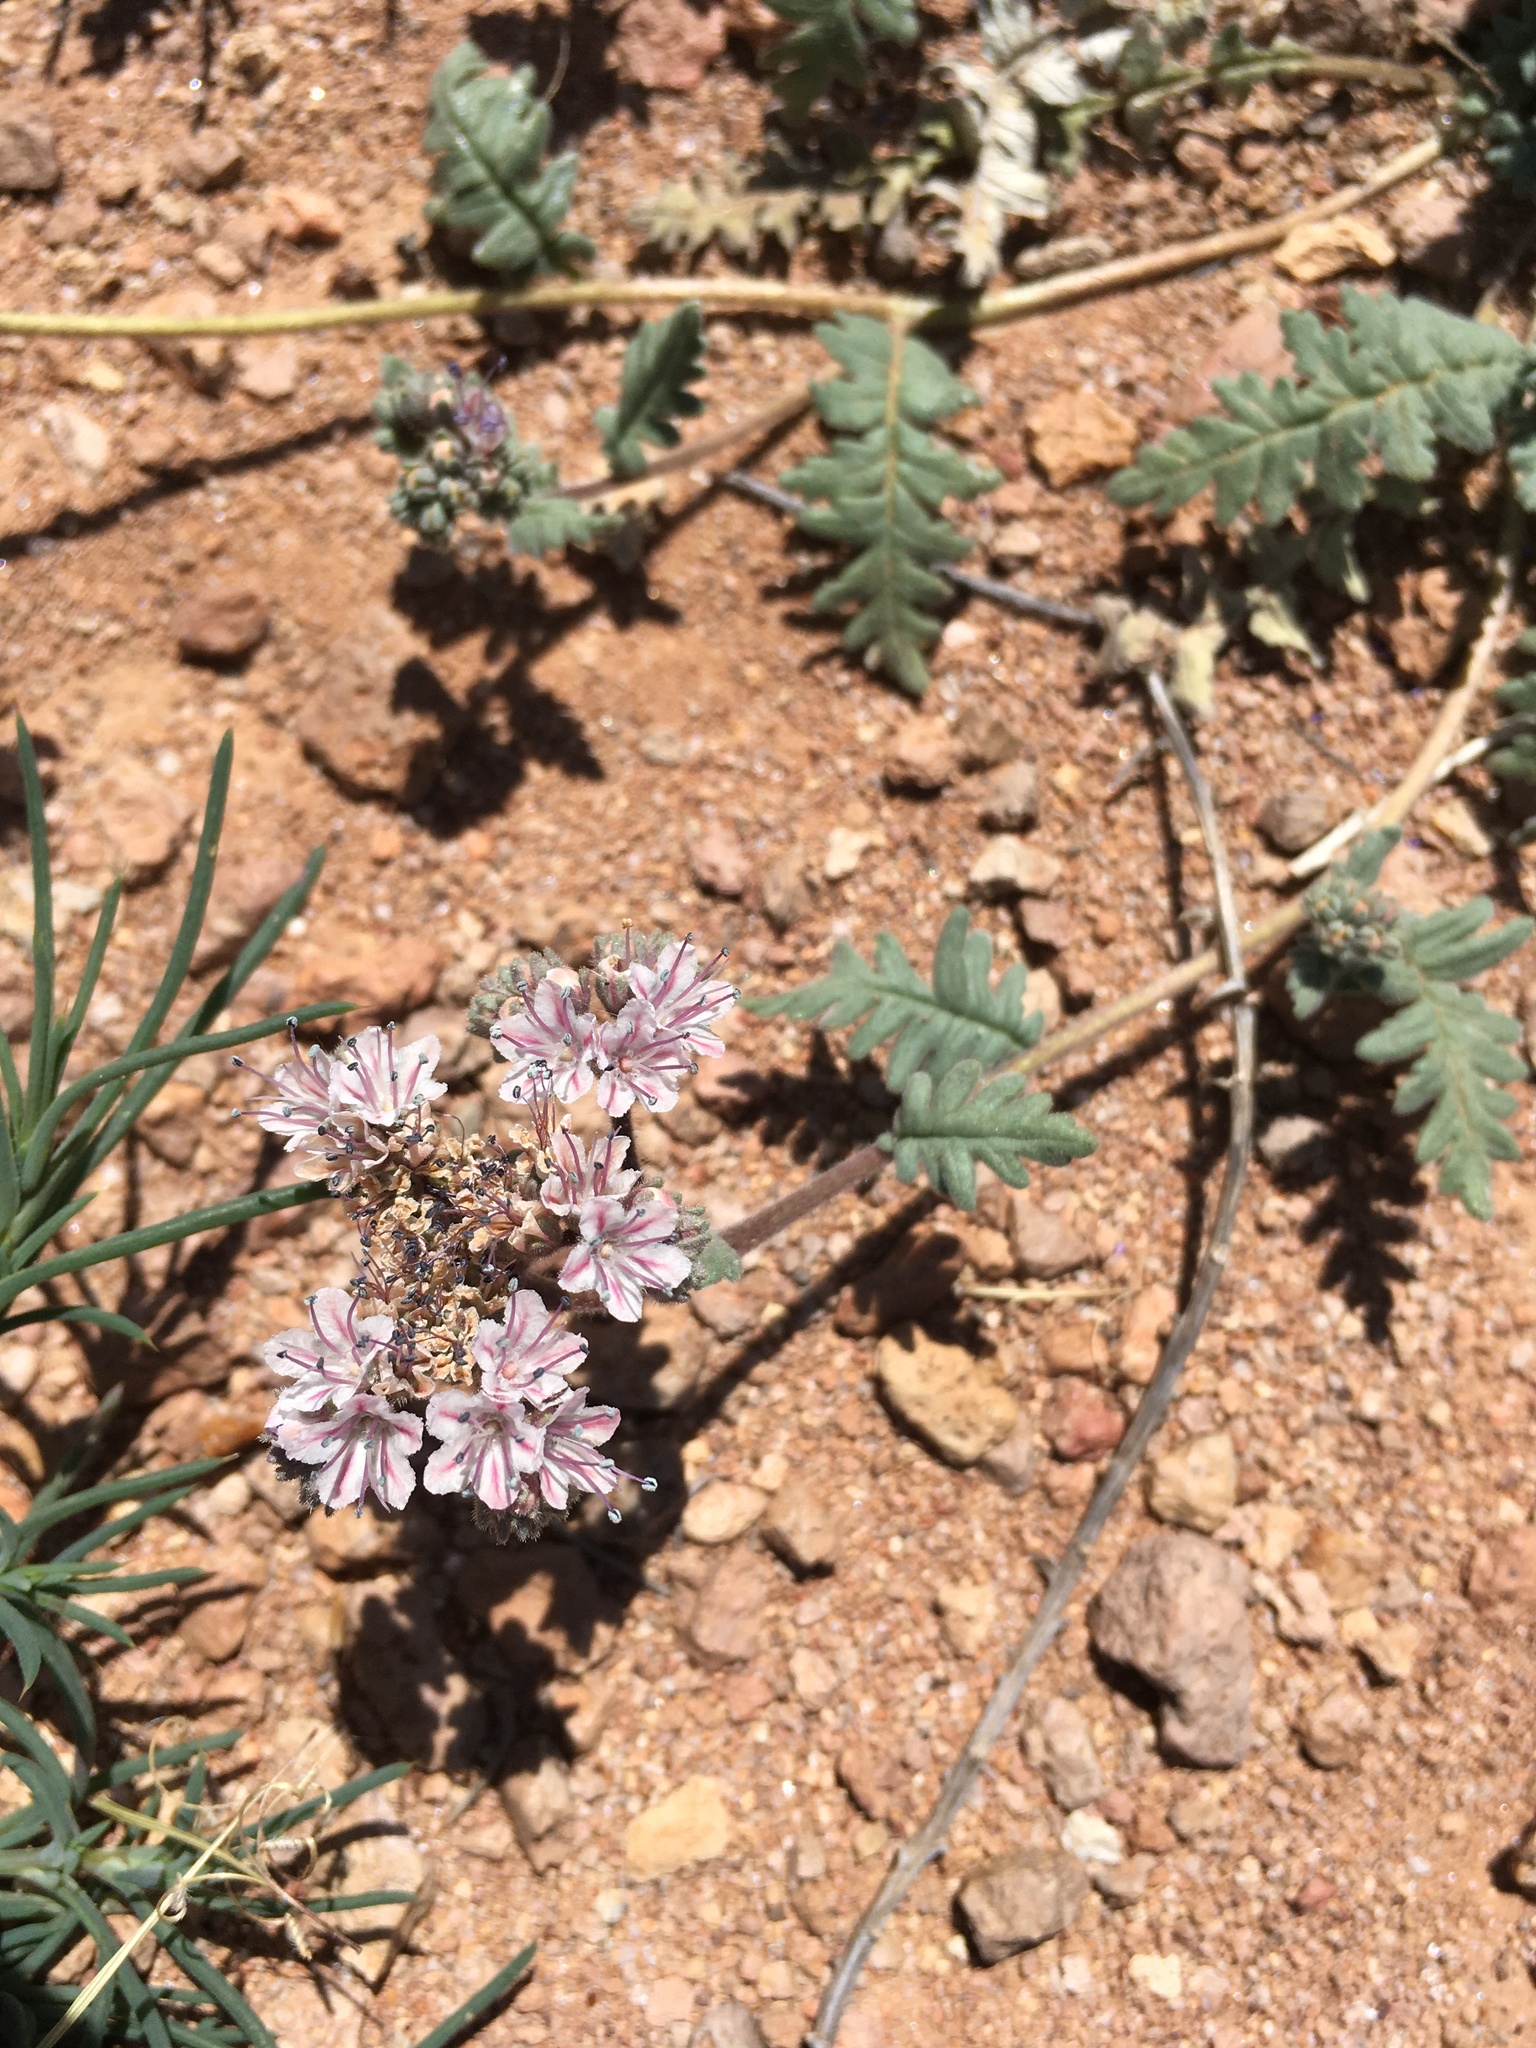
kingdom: Plantae
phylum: Tracheophyta
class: Magnoliopsida
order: Boraginales
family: Hydrophyllaceae
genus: Phacelia
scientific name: Phacelia arizonica
